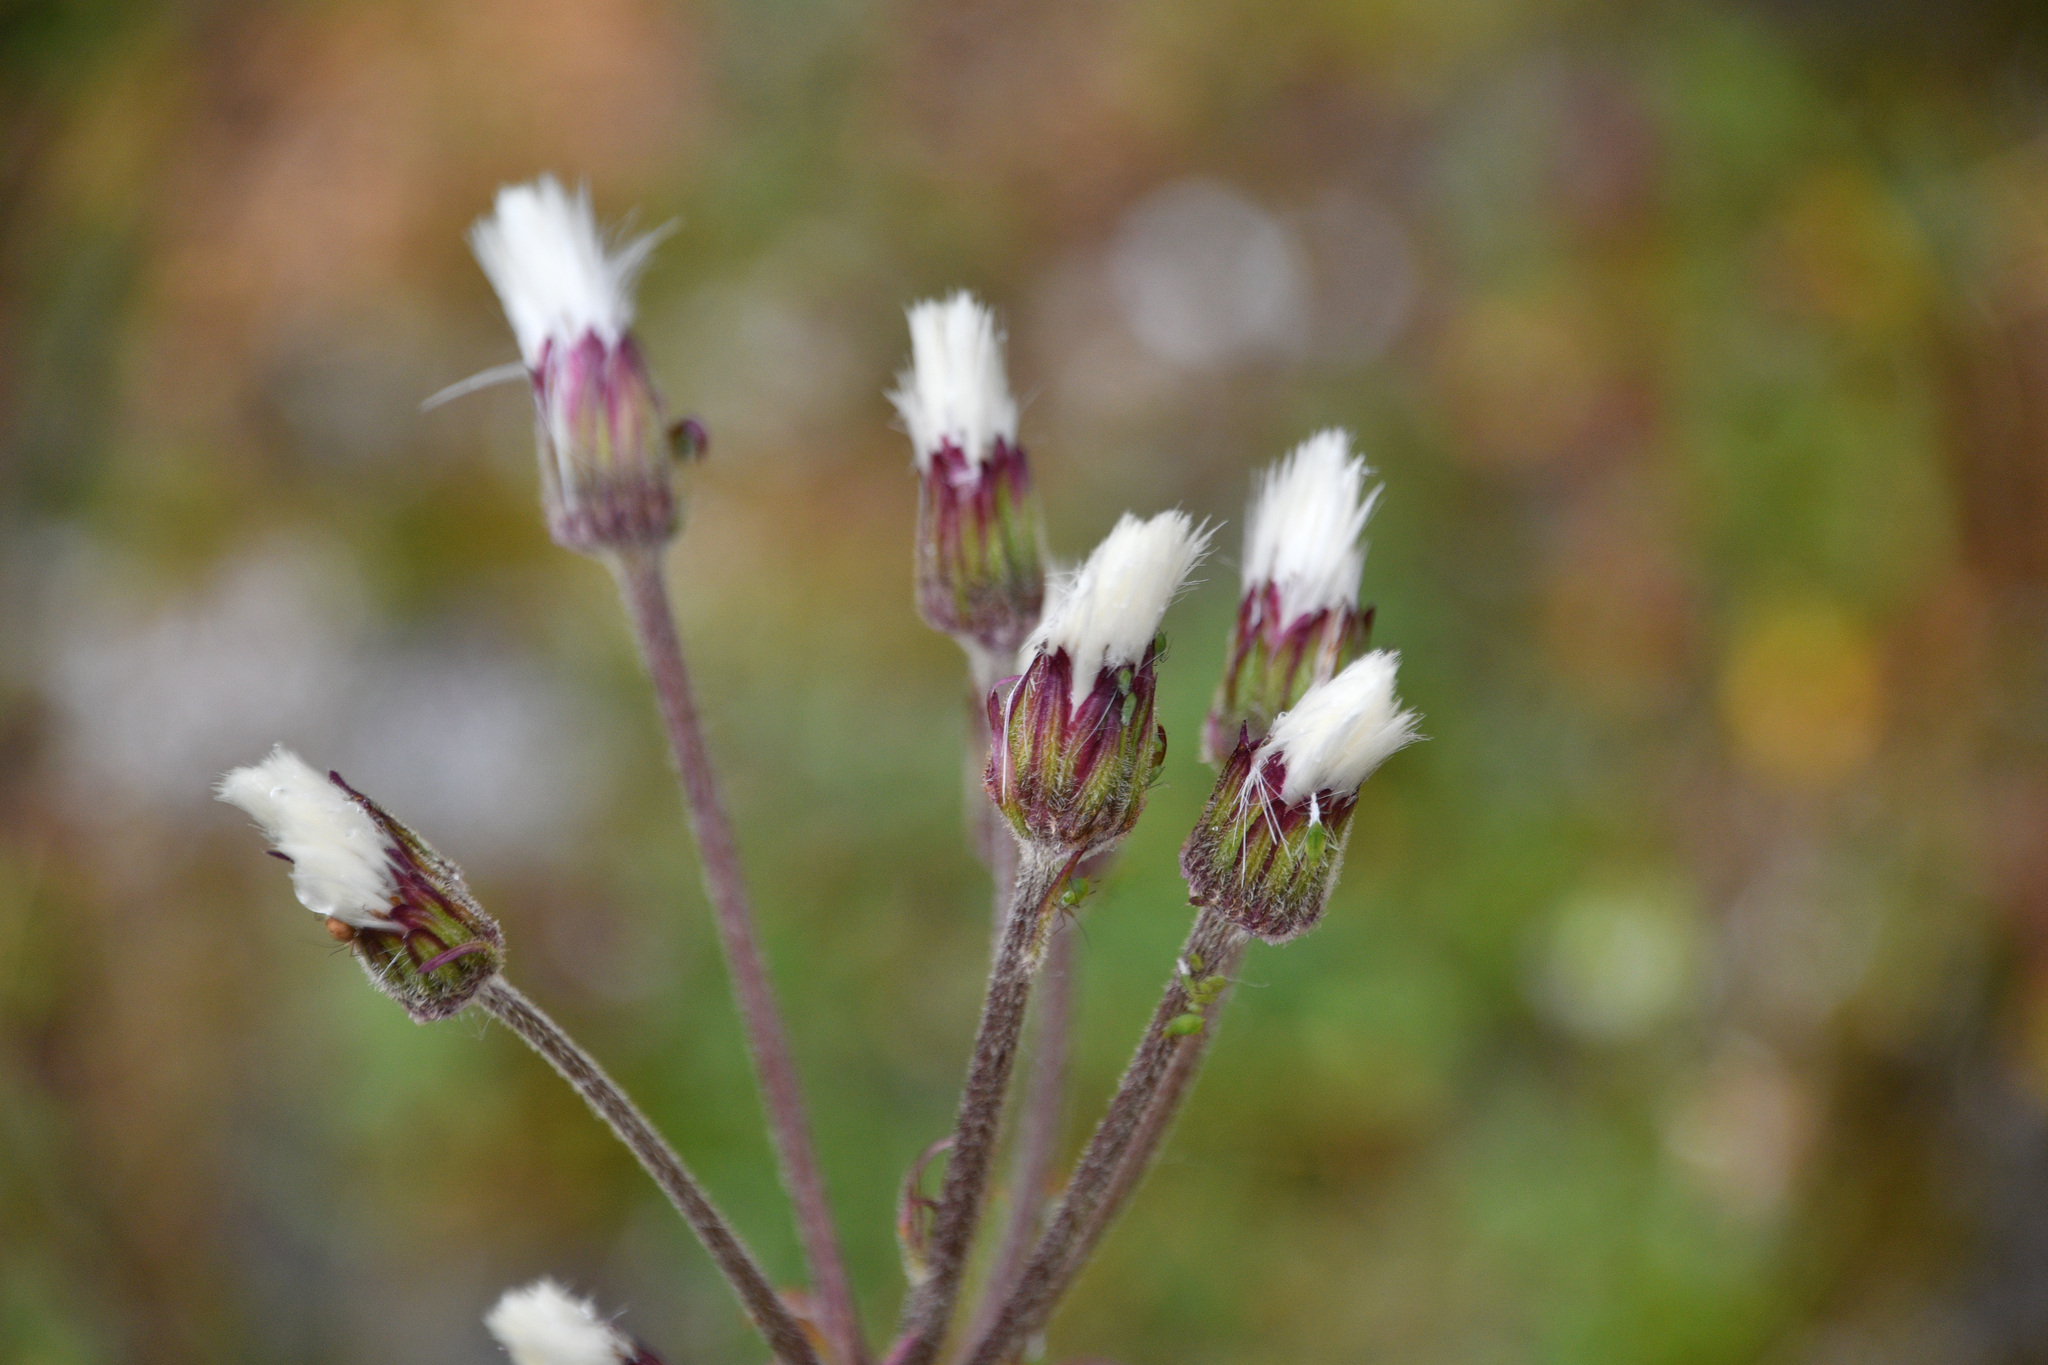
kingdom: Plantae
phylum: Tracheophyta
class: Magnoliopsida
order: Asterales
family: Asteraceae
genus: Petasites
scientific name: Petasites frigidus
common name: Arctic butterbur
